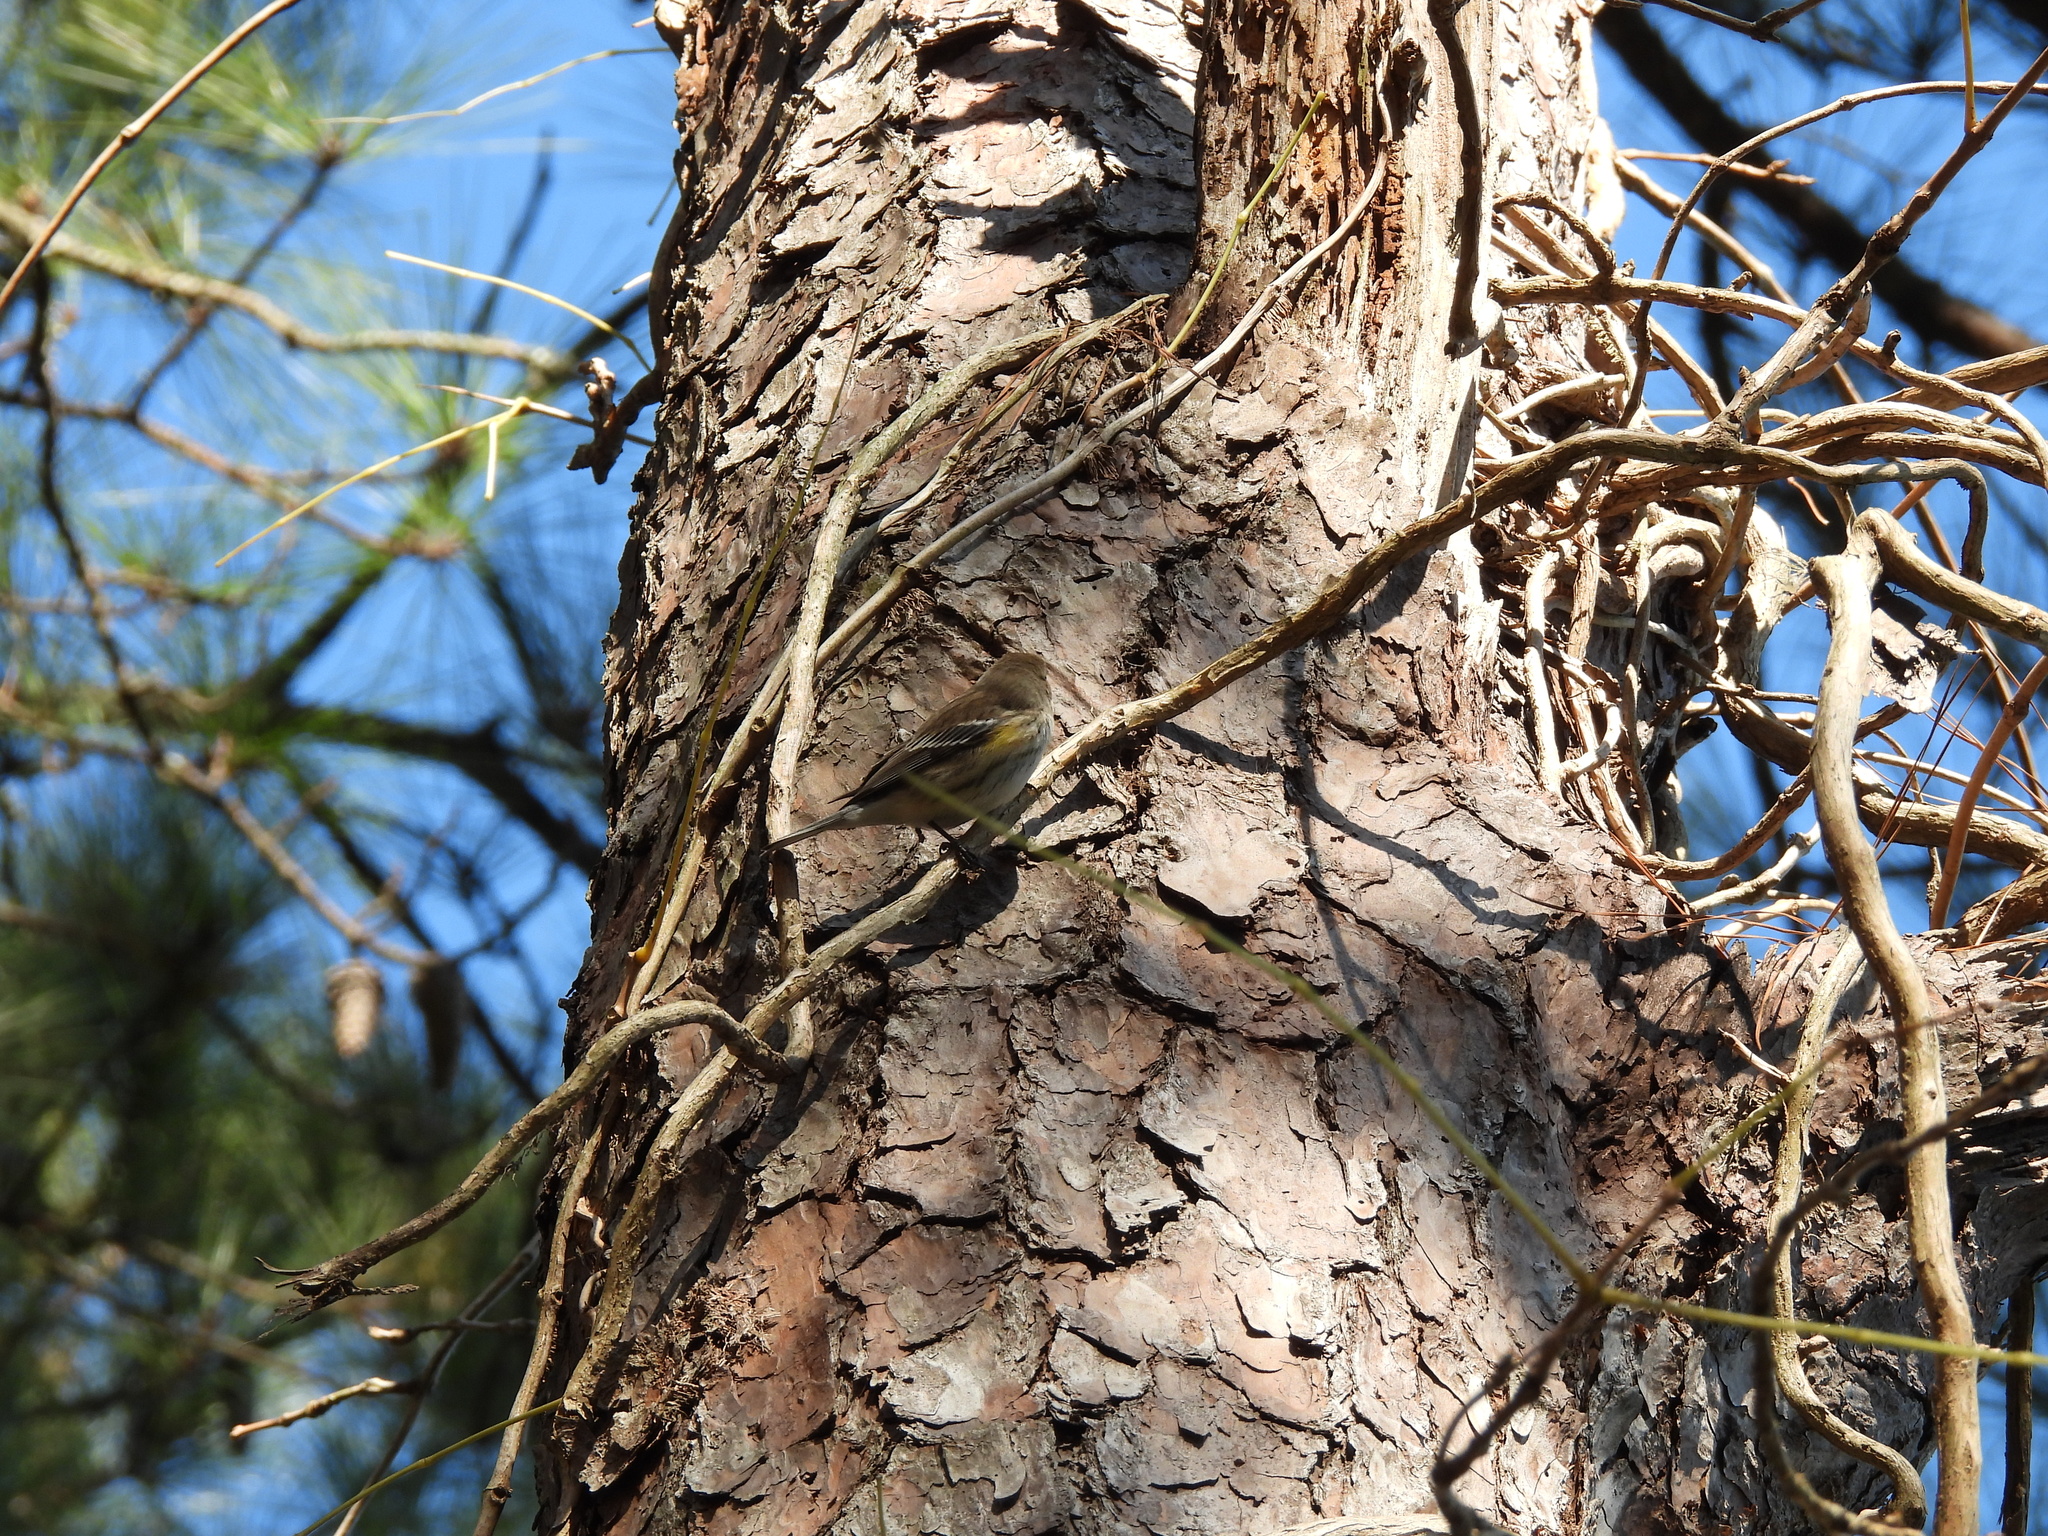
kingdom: Animalia
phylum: Chordata
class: Aves
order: Passeriformes
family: Parulidae
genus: Setophaga
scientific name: Setophaga coronata
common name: Myrtle warbler
